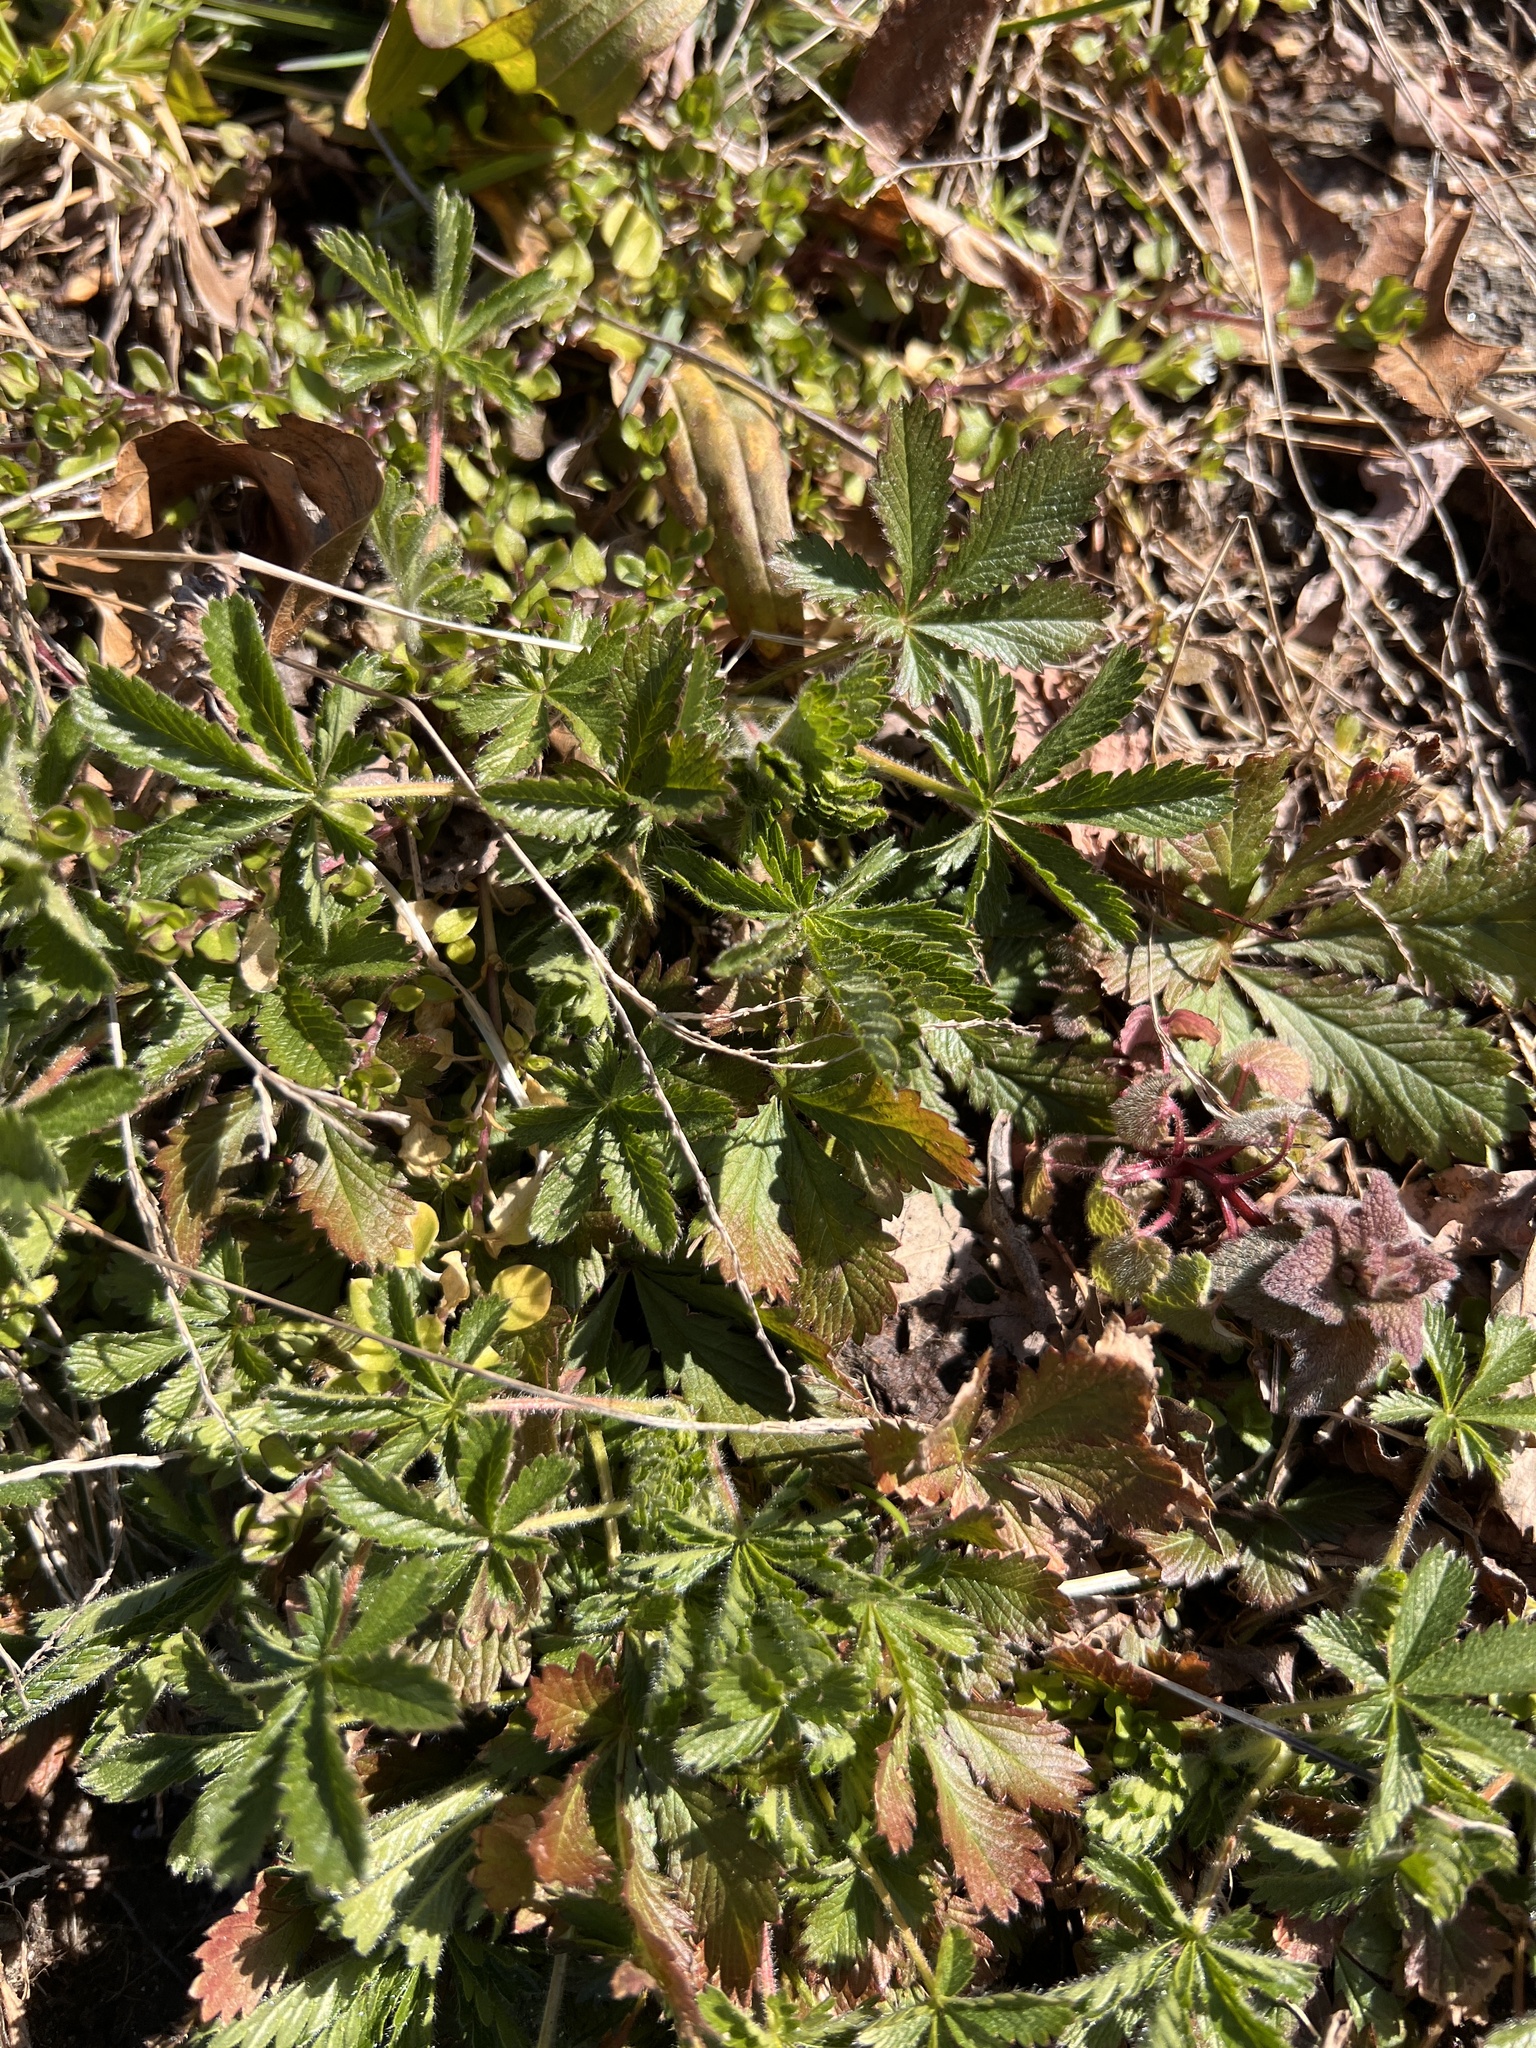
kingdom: Plantae
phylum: Tracheophyta
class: Magnoliopsida
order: Rosales
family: Rosaceae
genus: Potentilla
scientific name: Potentilla recta
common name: Sulphur cinquefoil
